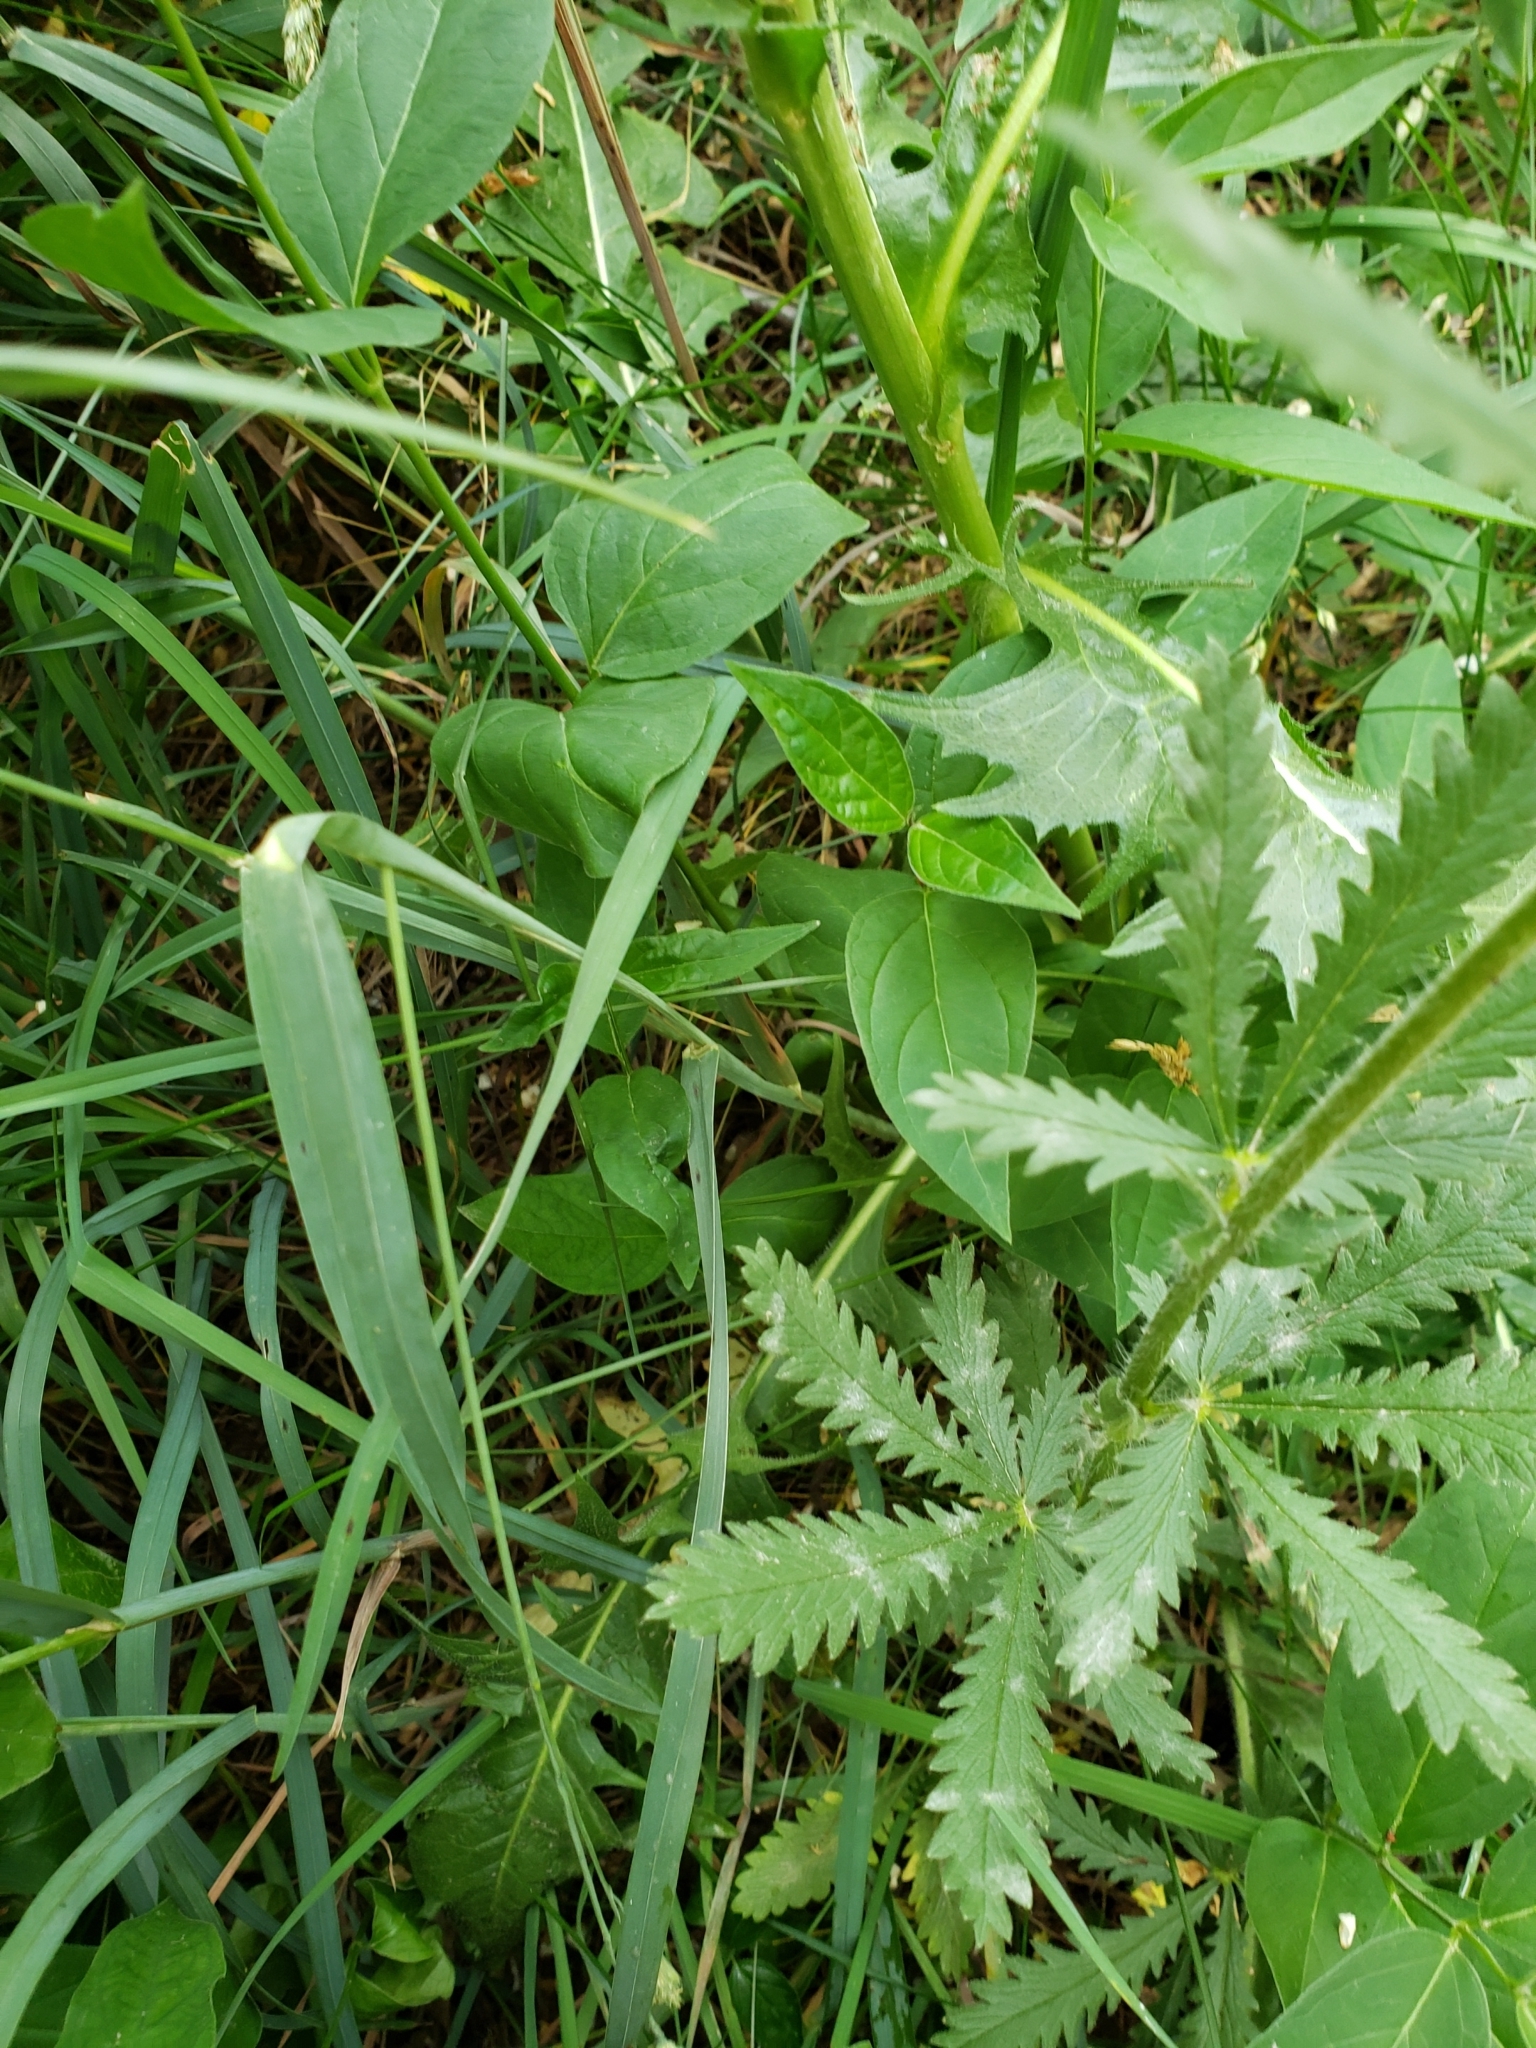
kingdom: Plantae
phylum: Tracheophyta
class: Magnoliopsida
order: Rosales
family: Rosaceae
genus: Potentilla
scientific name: Potentilla recta
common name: Sulphur cinquefoil
